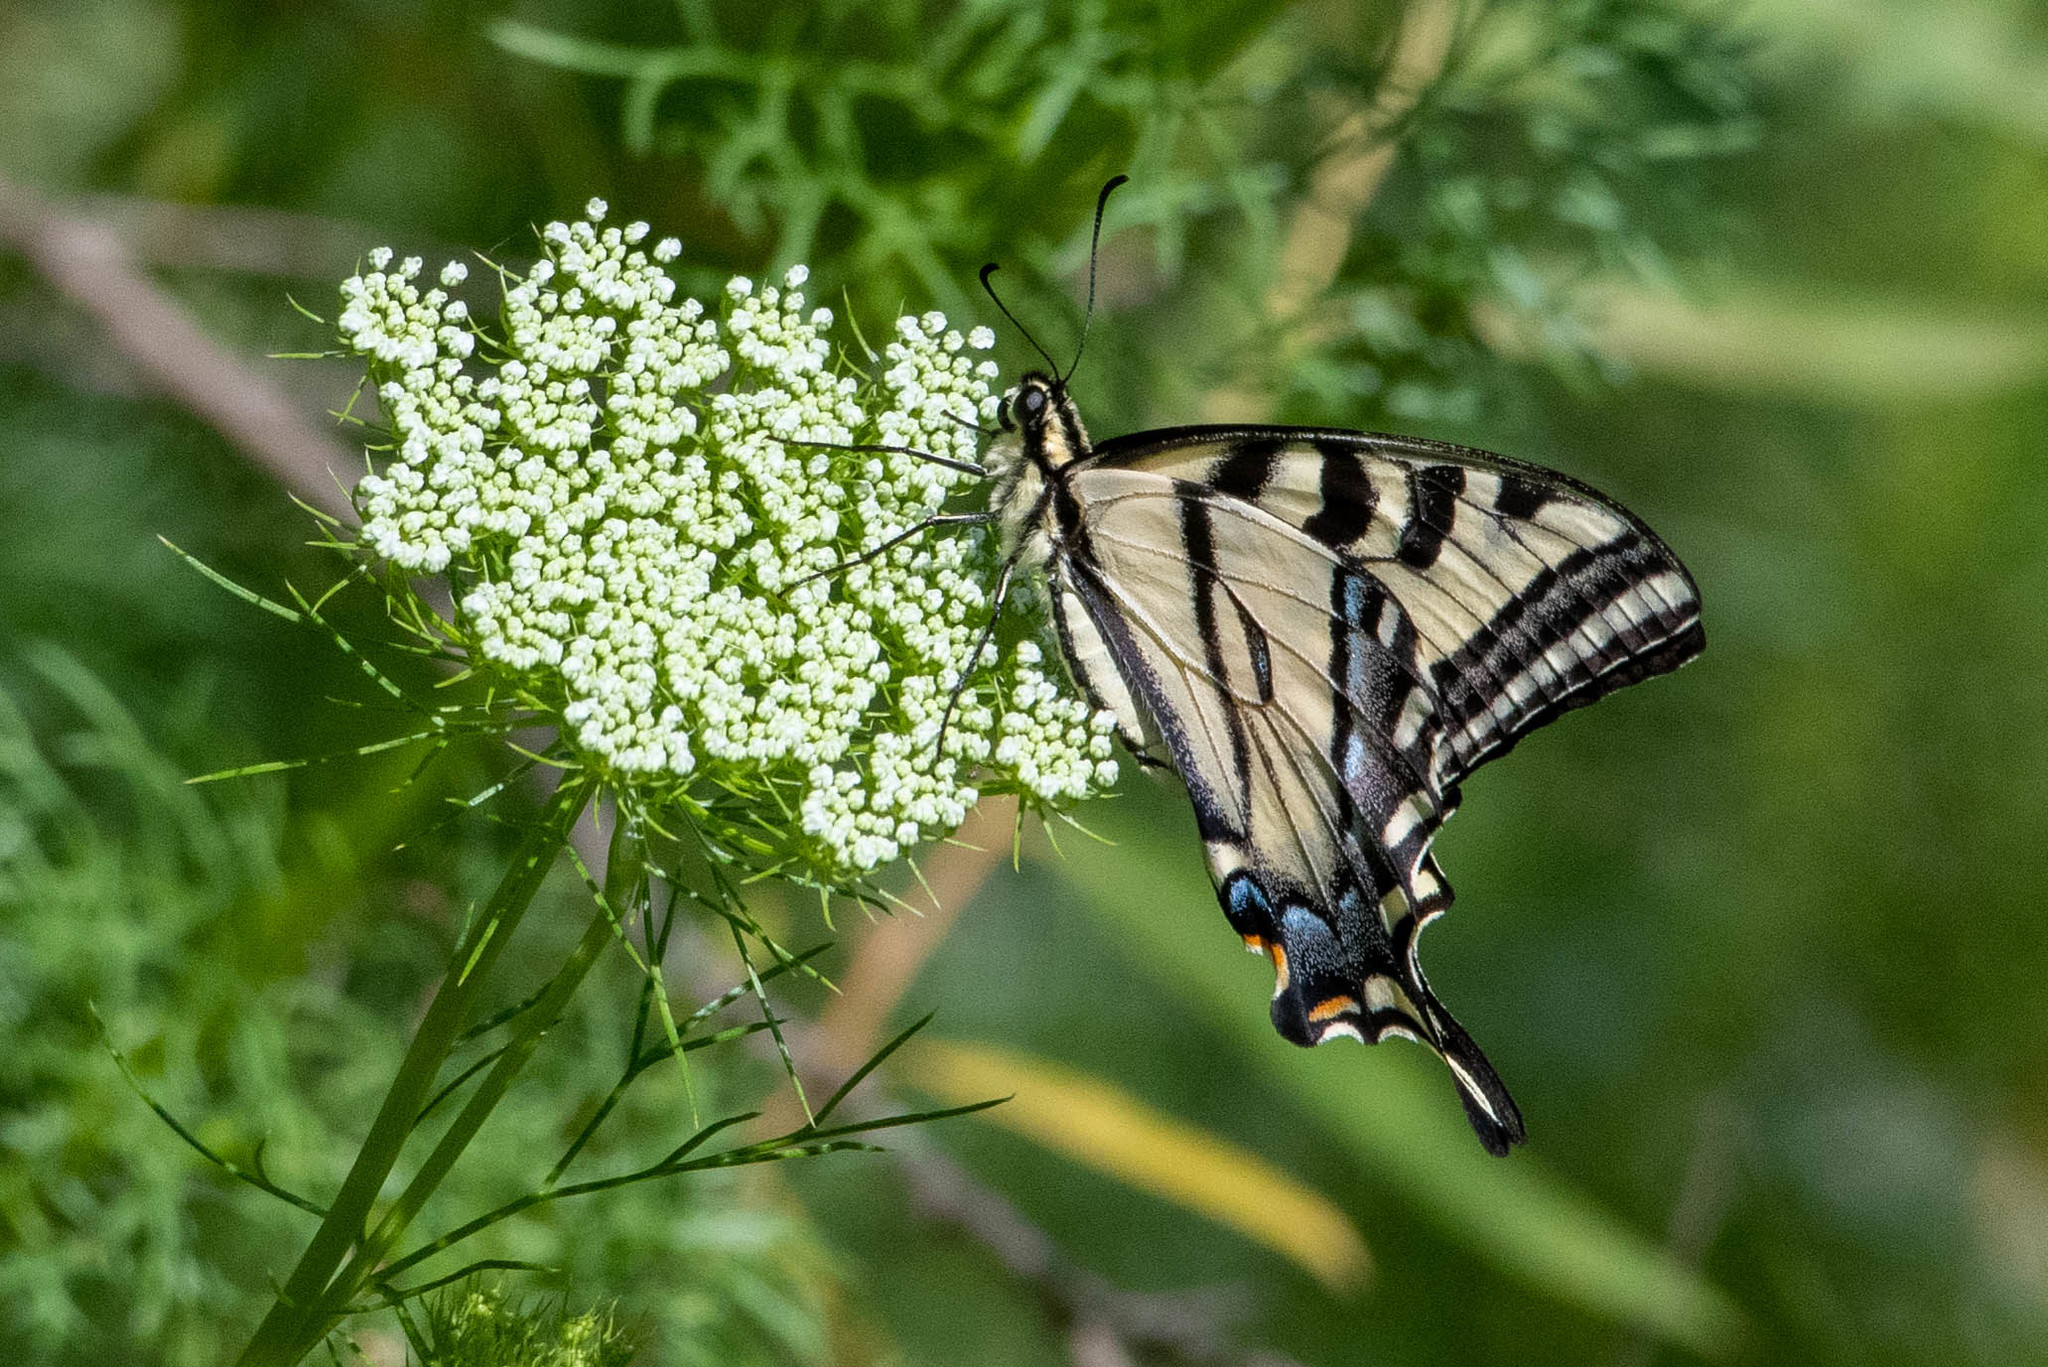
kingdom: Animalia
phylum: Arthropoda
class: Insecta
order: Lepidoptera
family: Papilionidae
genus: Papilio
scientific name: Papilio rutulus
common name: Western tiger swallowtail
